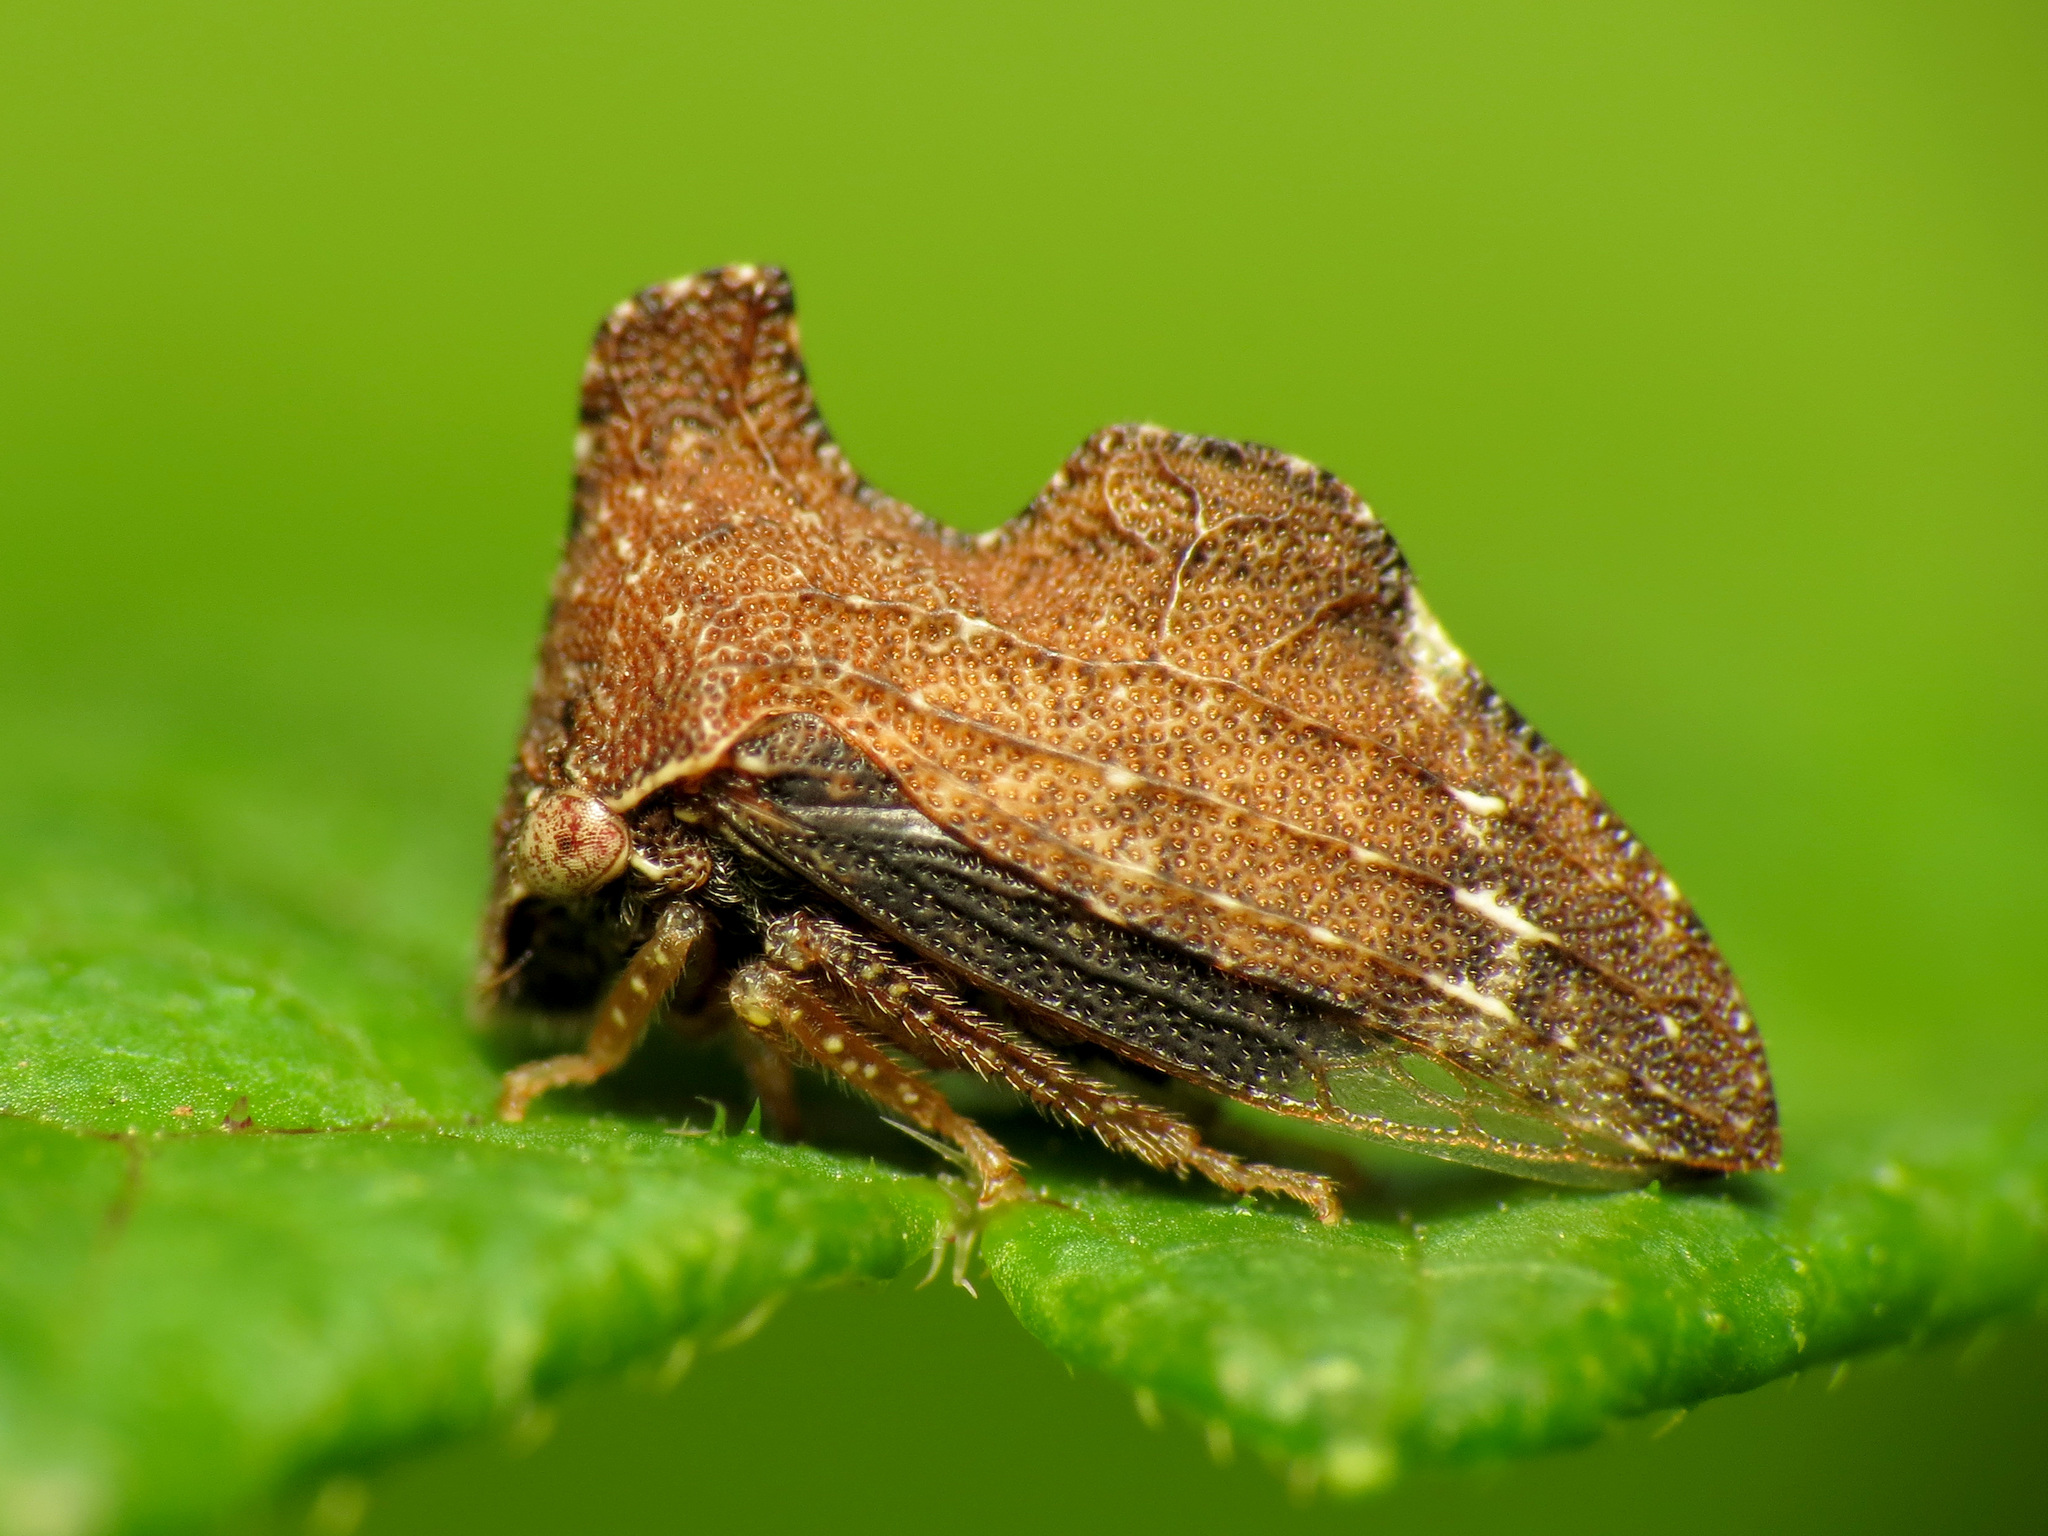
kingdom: Animalia
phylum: Arthropoda
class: Insecta
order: Hemiptera
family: Membracidae
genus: Entylia
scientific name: Entylia carinata
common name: Keeled treehopper
